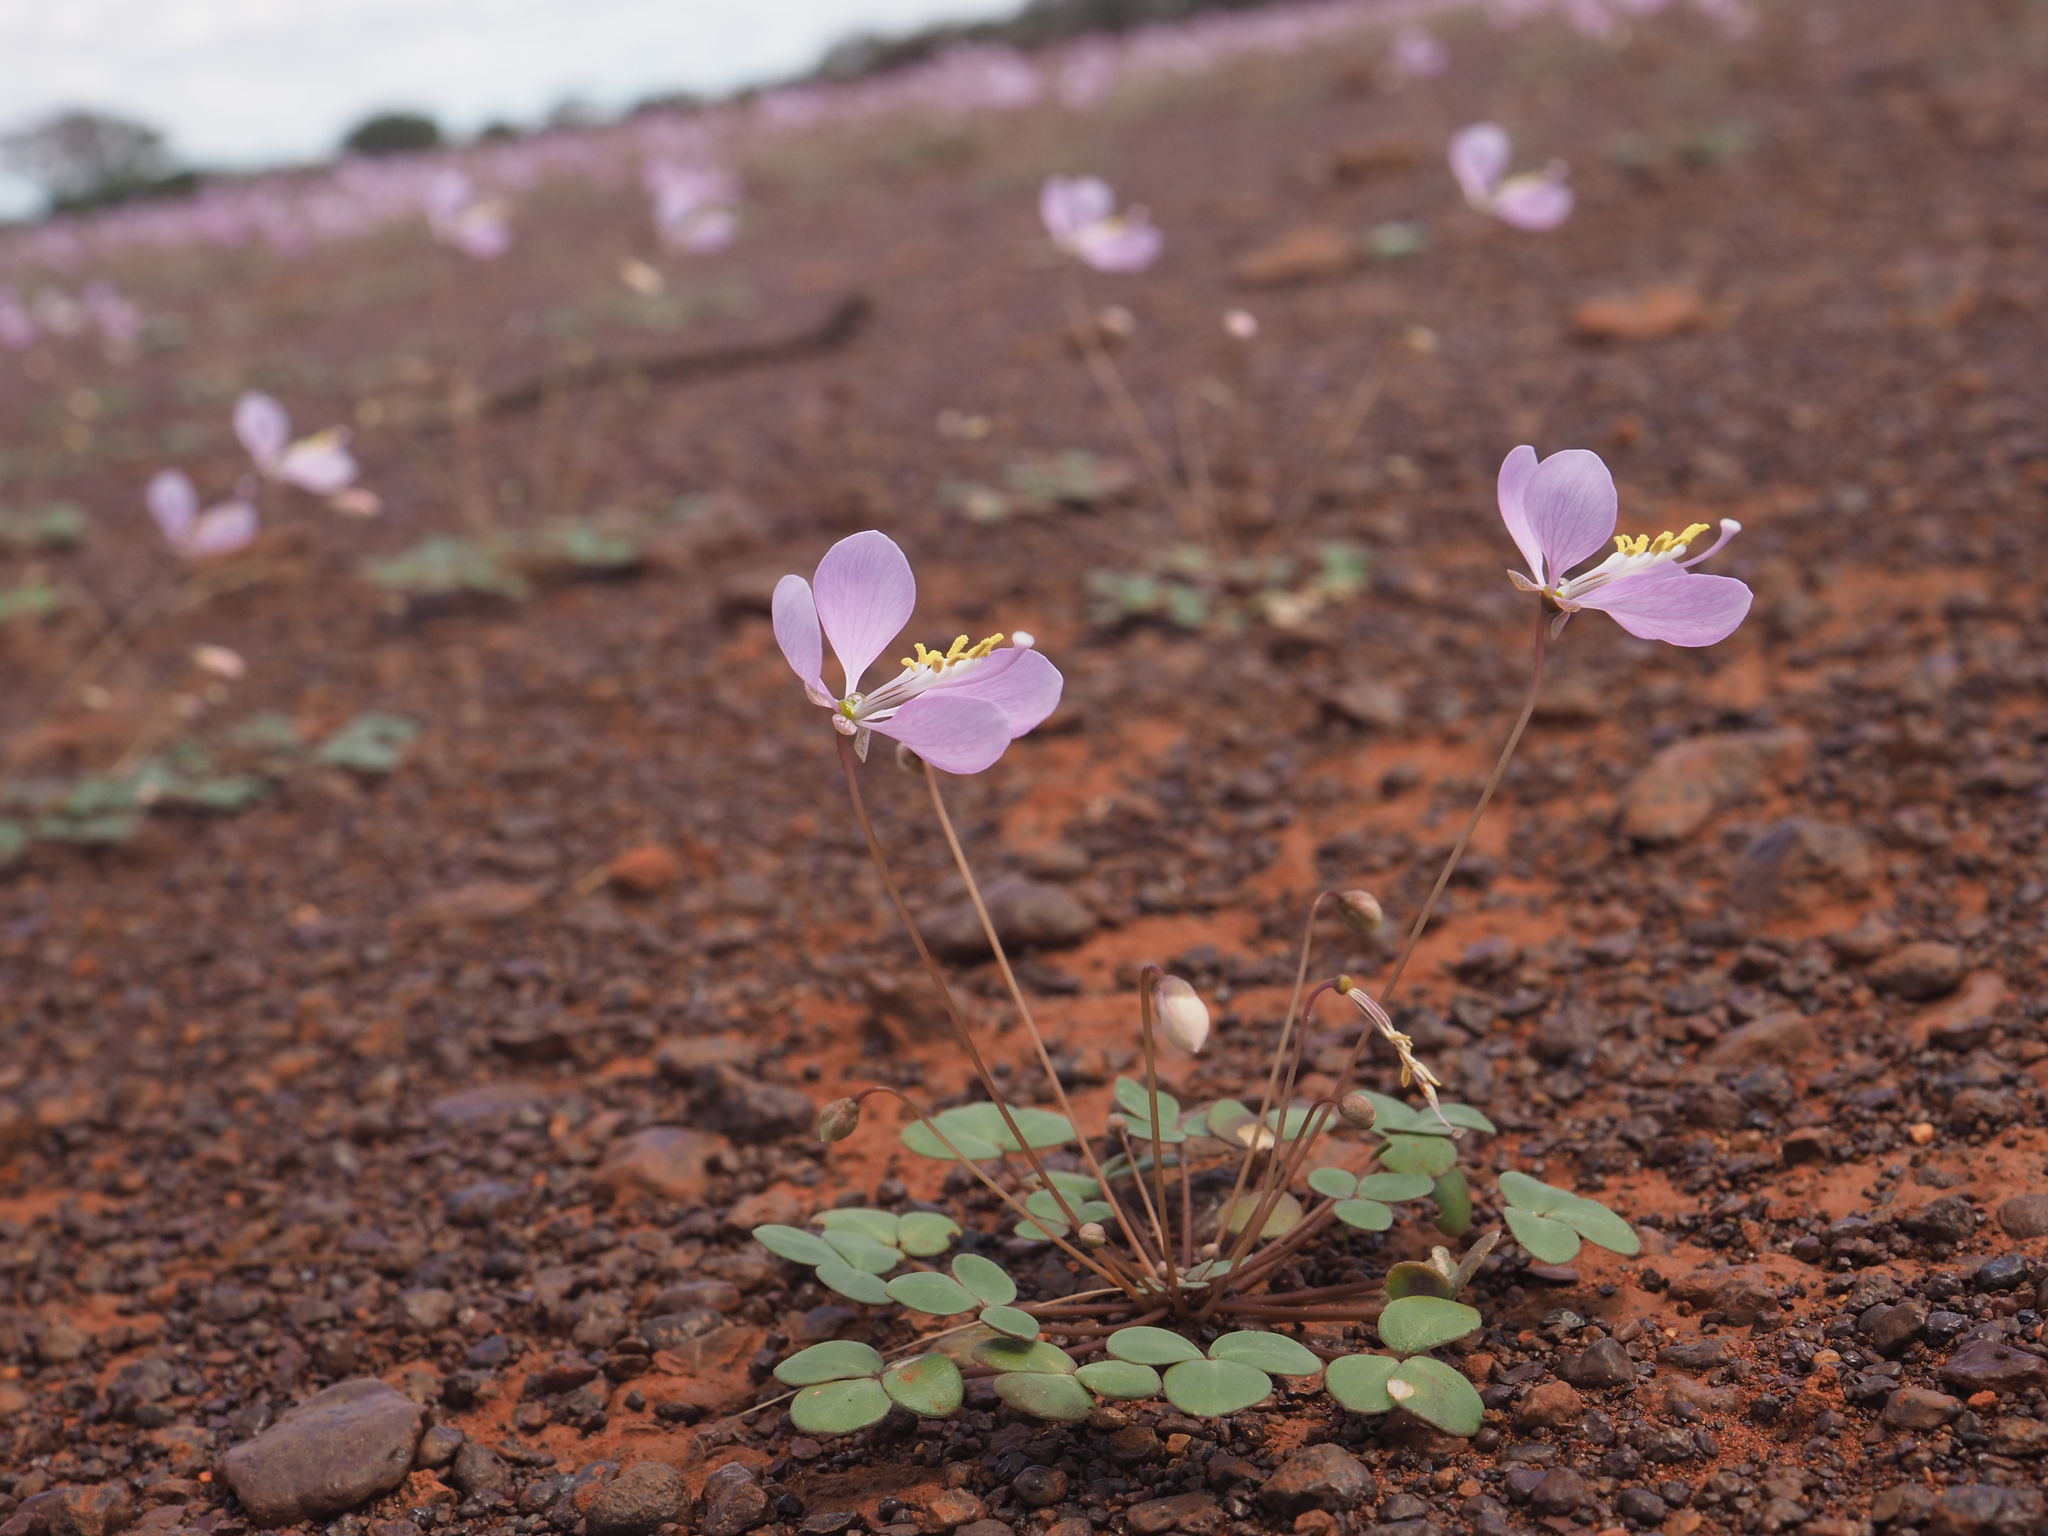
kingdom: Plantae
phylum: Tracheophyta
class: Magnoliopsida
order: Brassicales
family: Cleomaceae
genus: Areocleome
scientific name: Areocleome oxalidea
